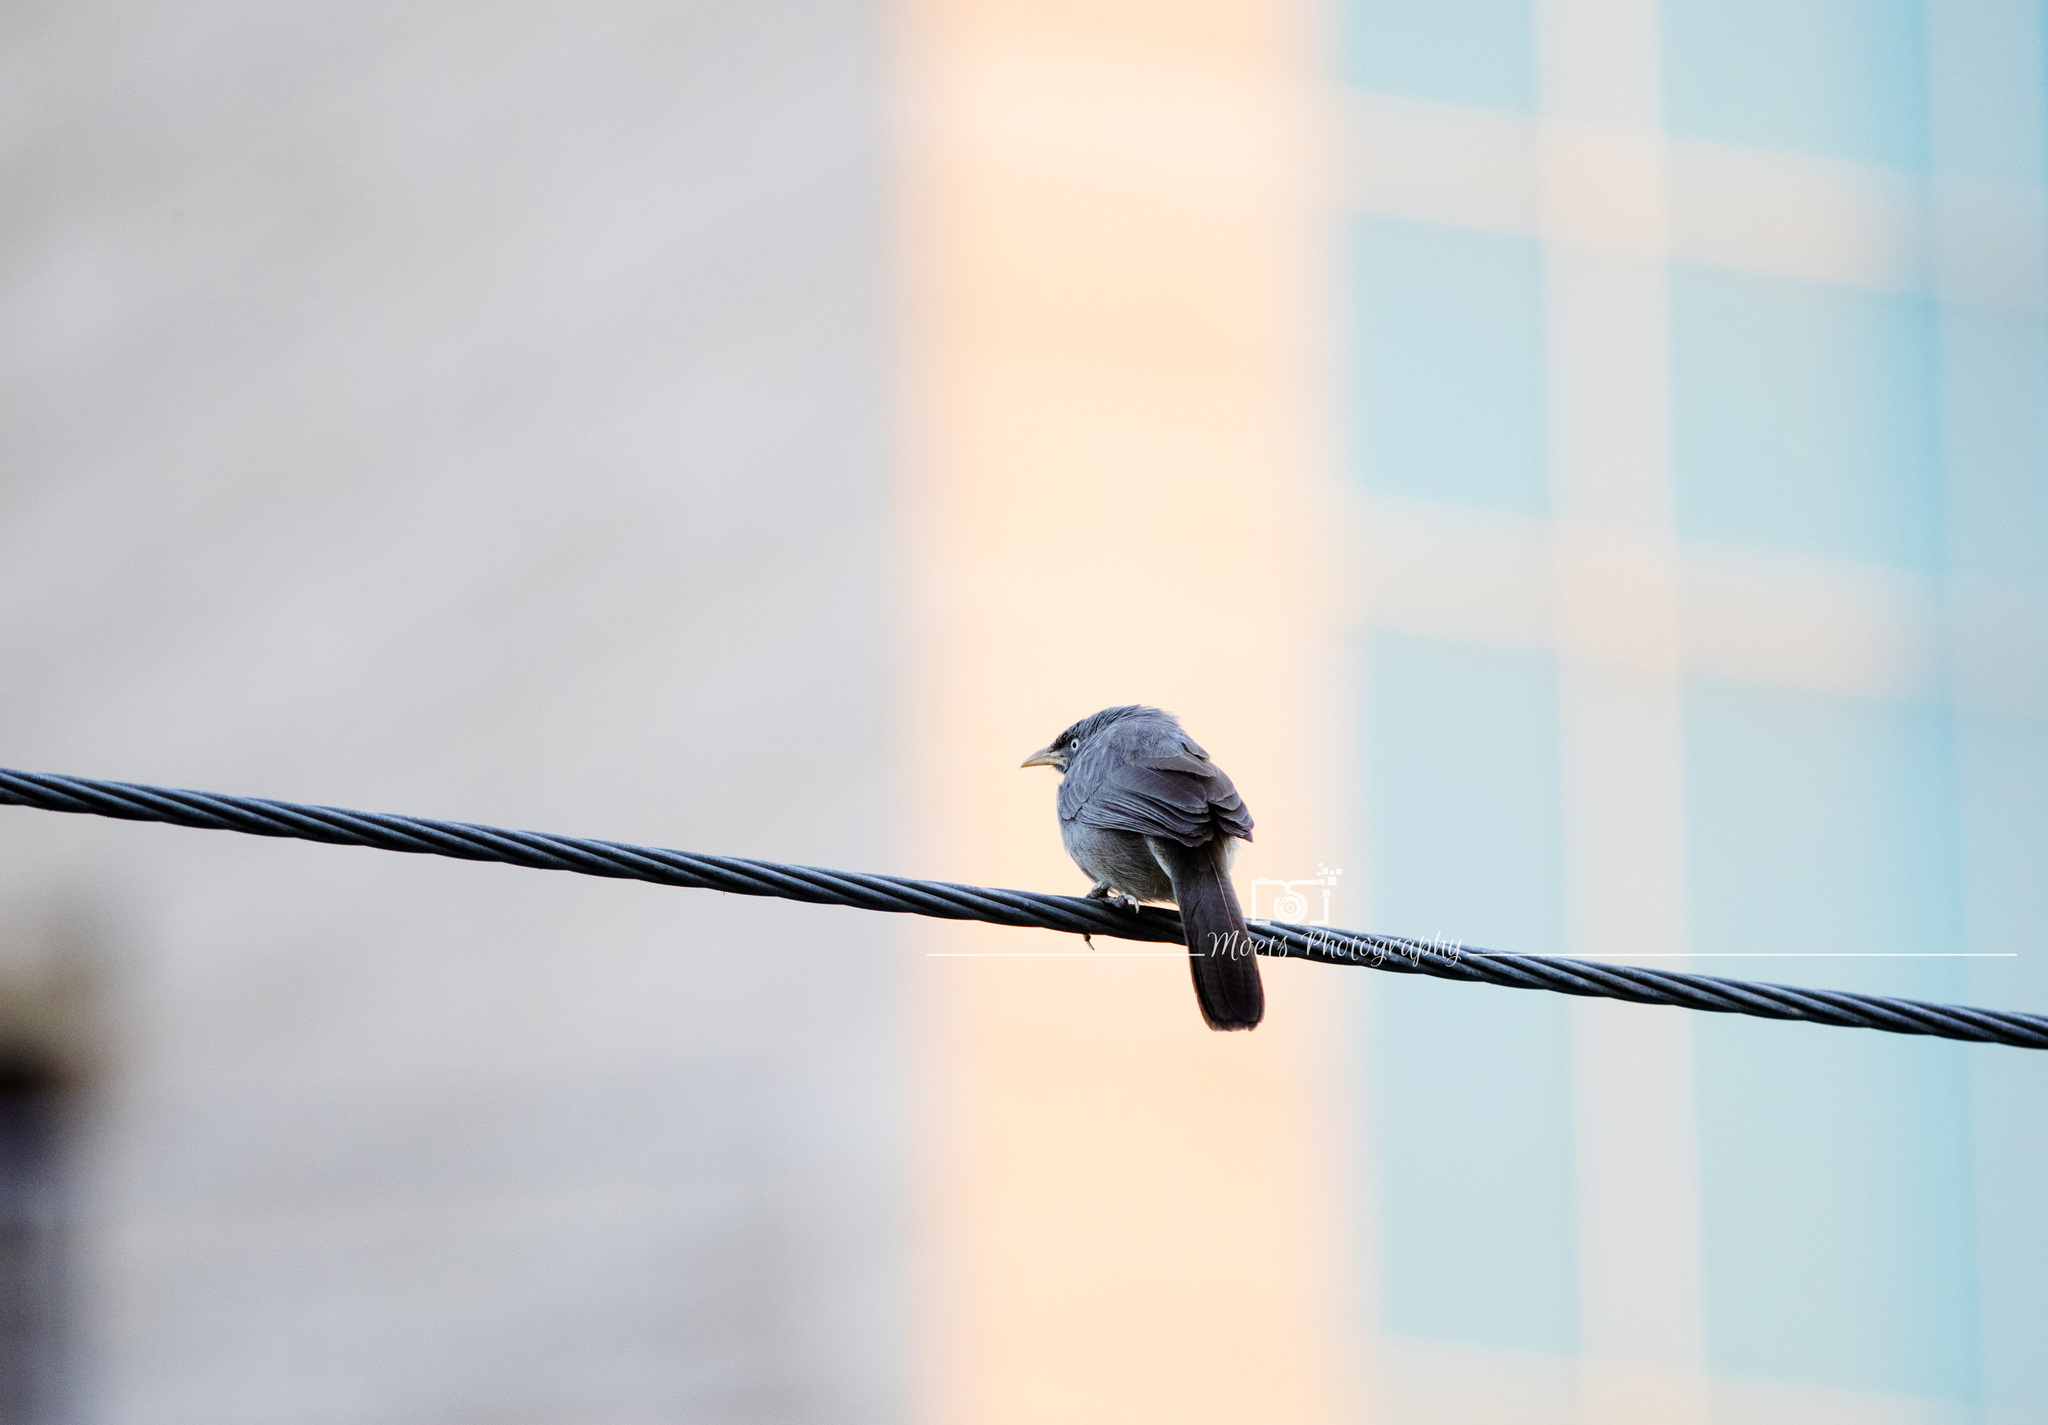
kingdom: Animalia
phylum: Chordata
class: Aves
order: Passeriformes
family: Leiothrichidae
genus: Turdoides
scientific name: Turdoides striata
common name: Jungle babbler
